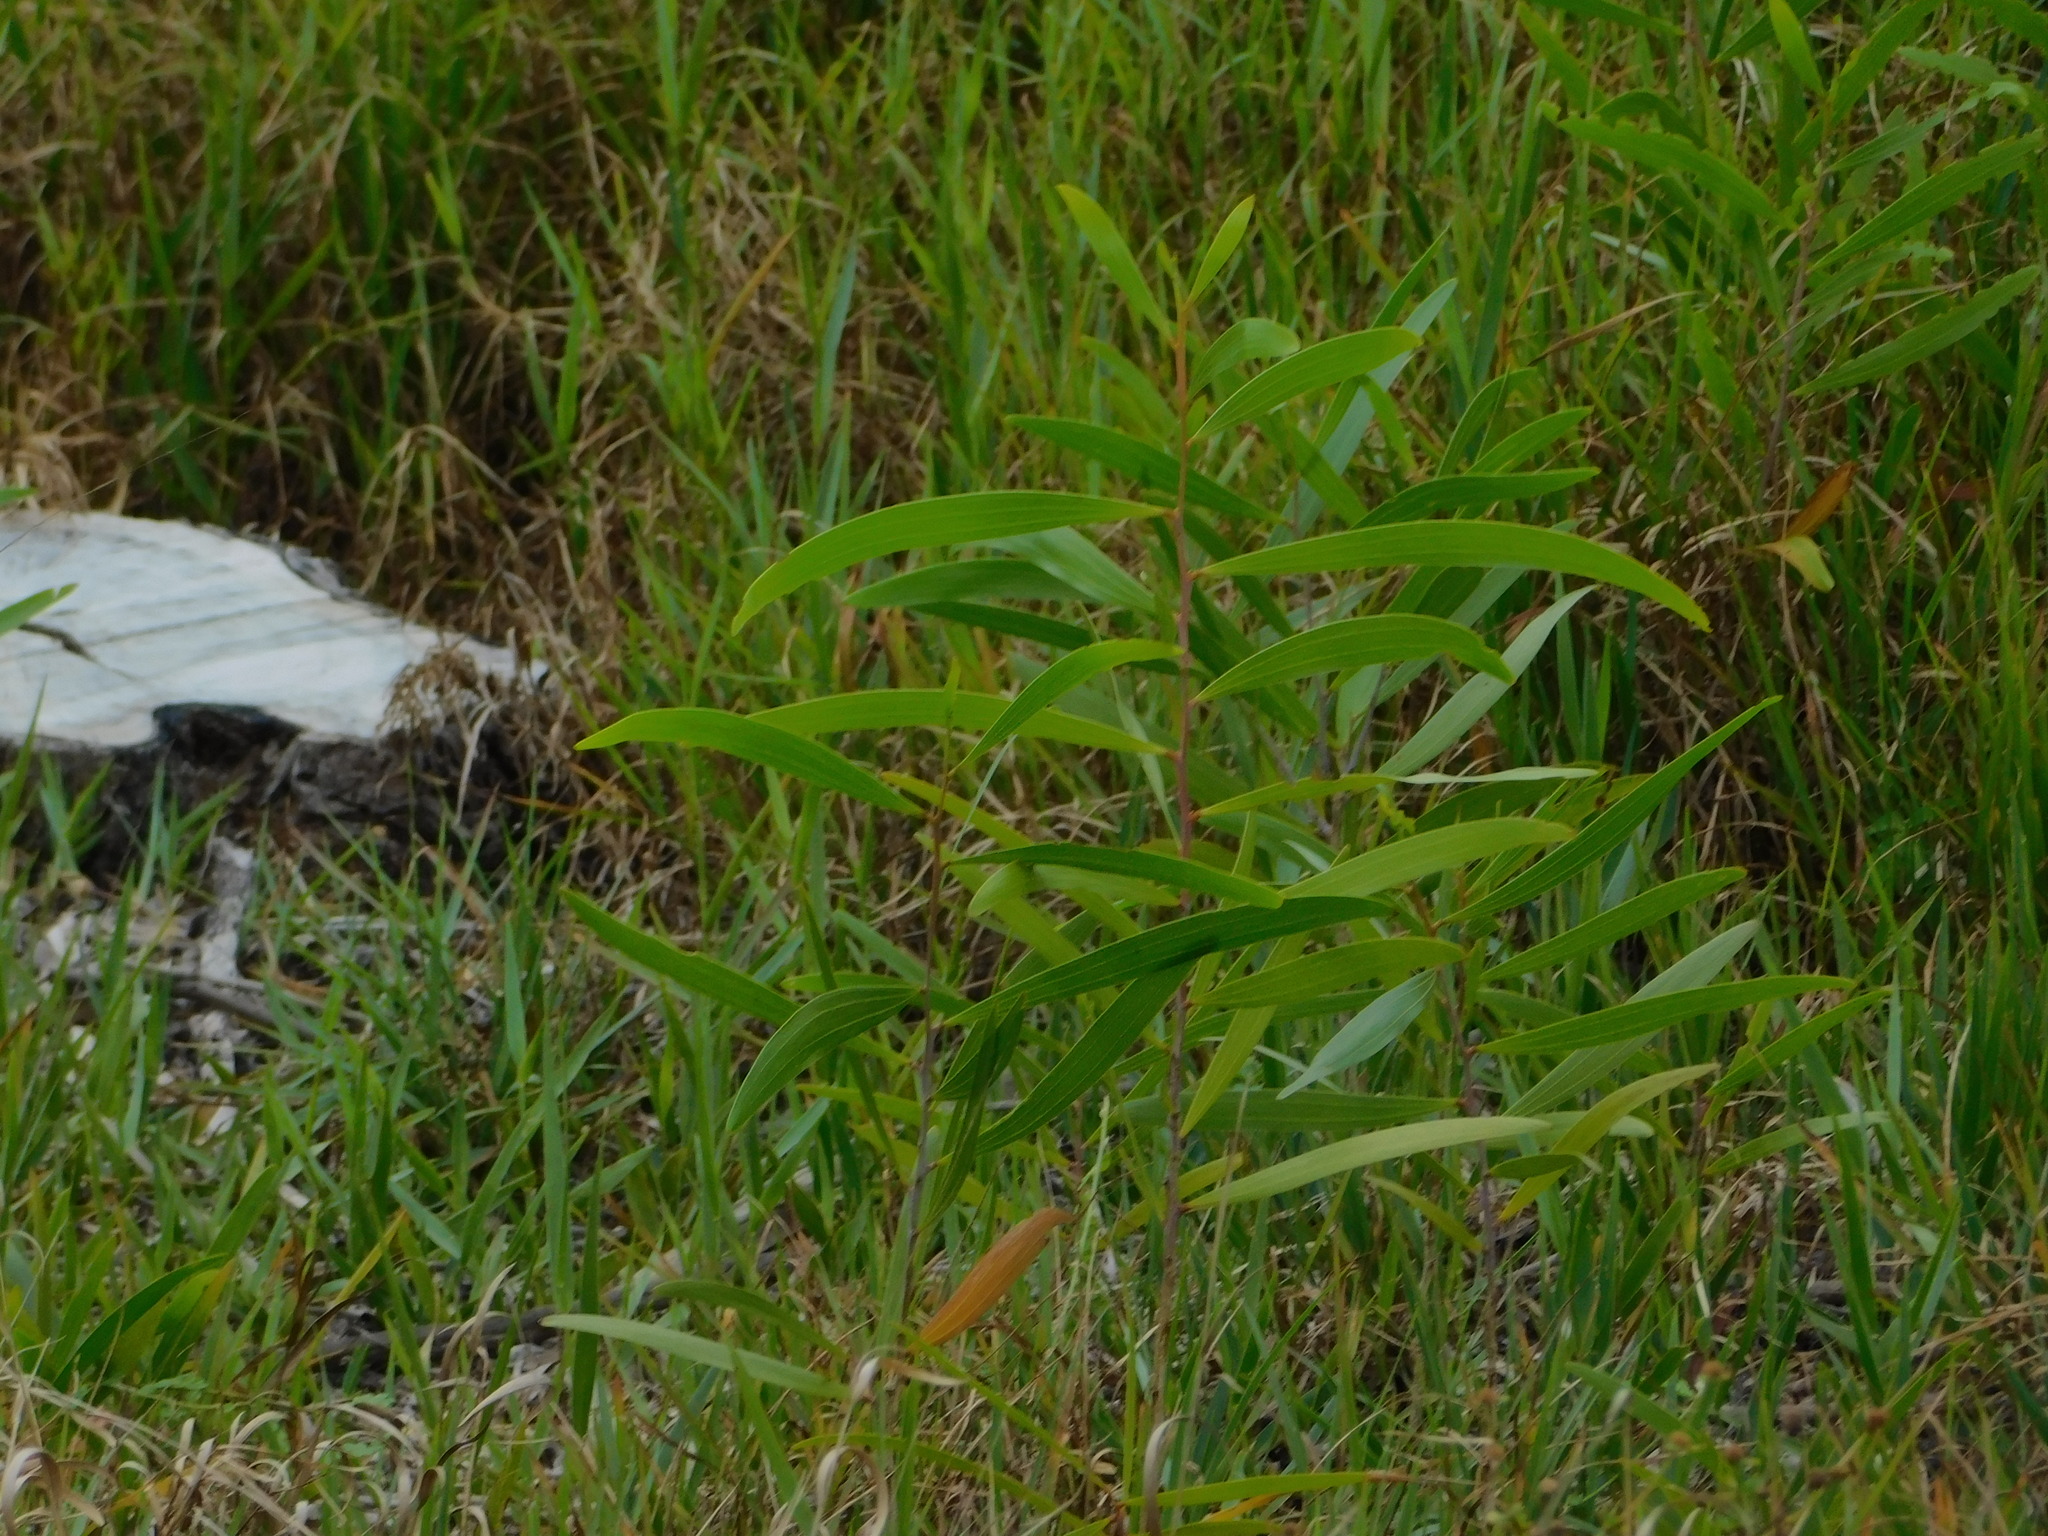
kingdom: Plantae
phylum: Tracheophyta
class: Magnoliopsida
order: Fabales
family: Fabaceae
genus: Acacia
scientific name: Acacia auriculiformis
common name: Earleaf acacia
